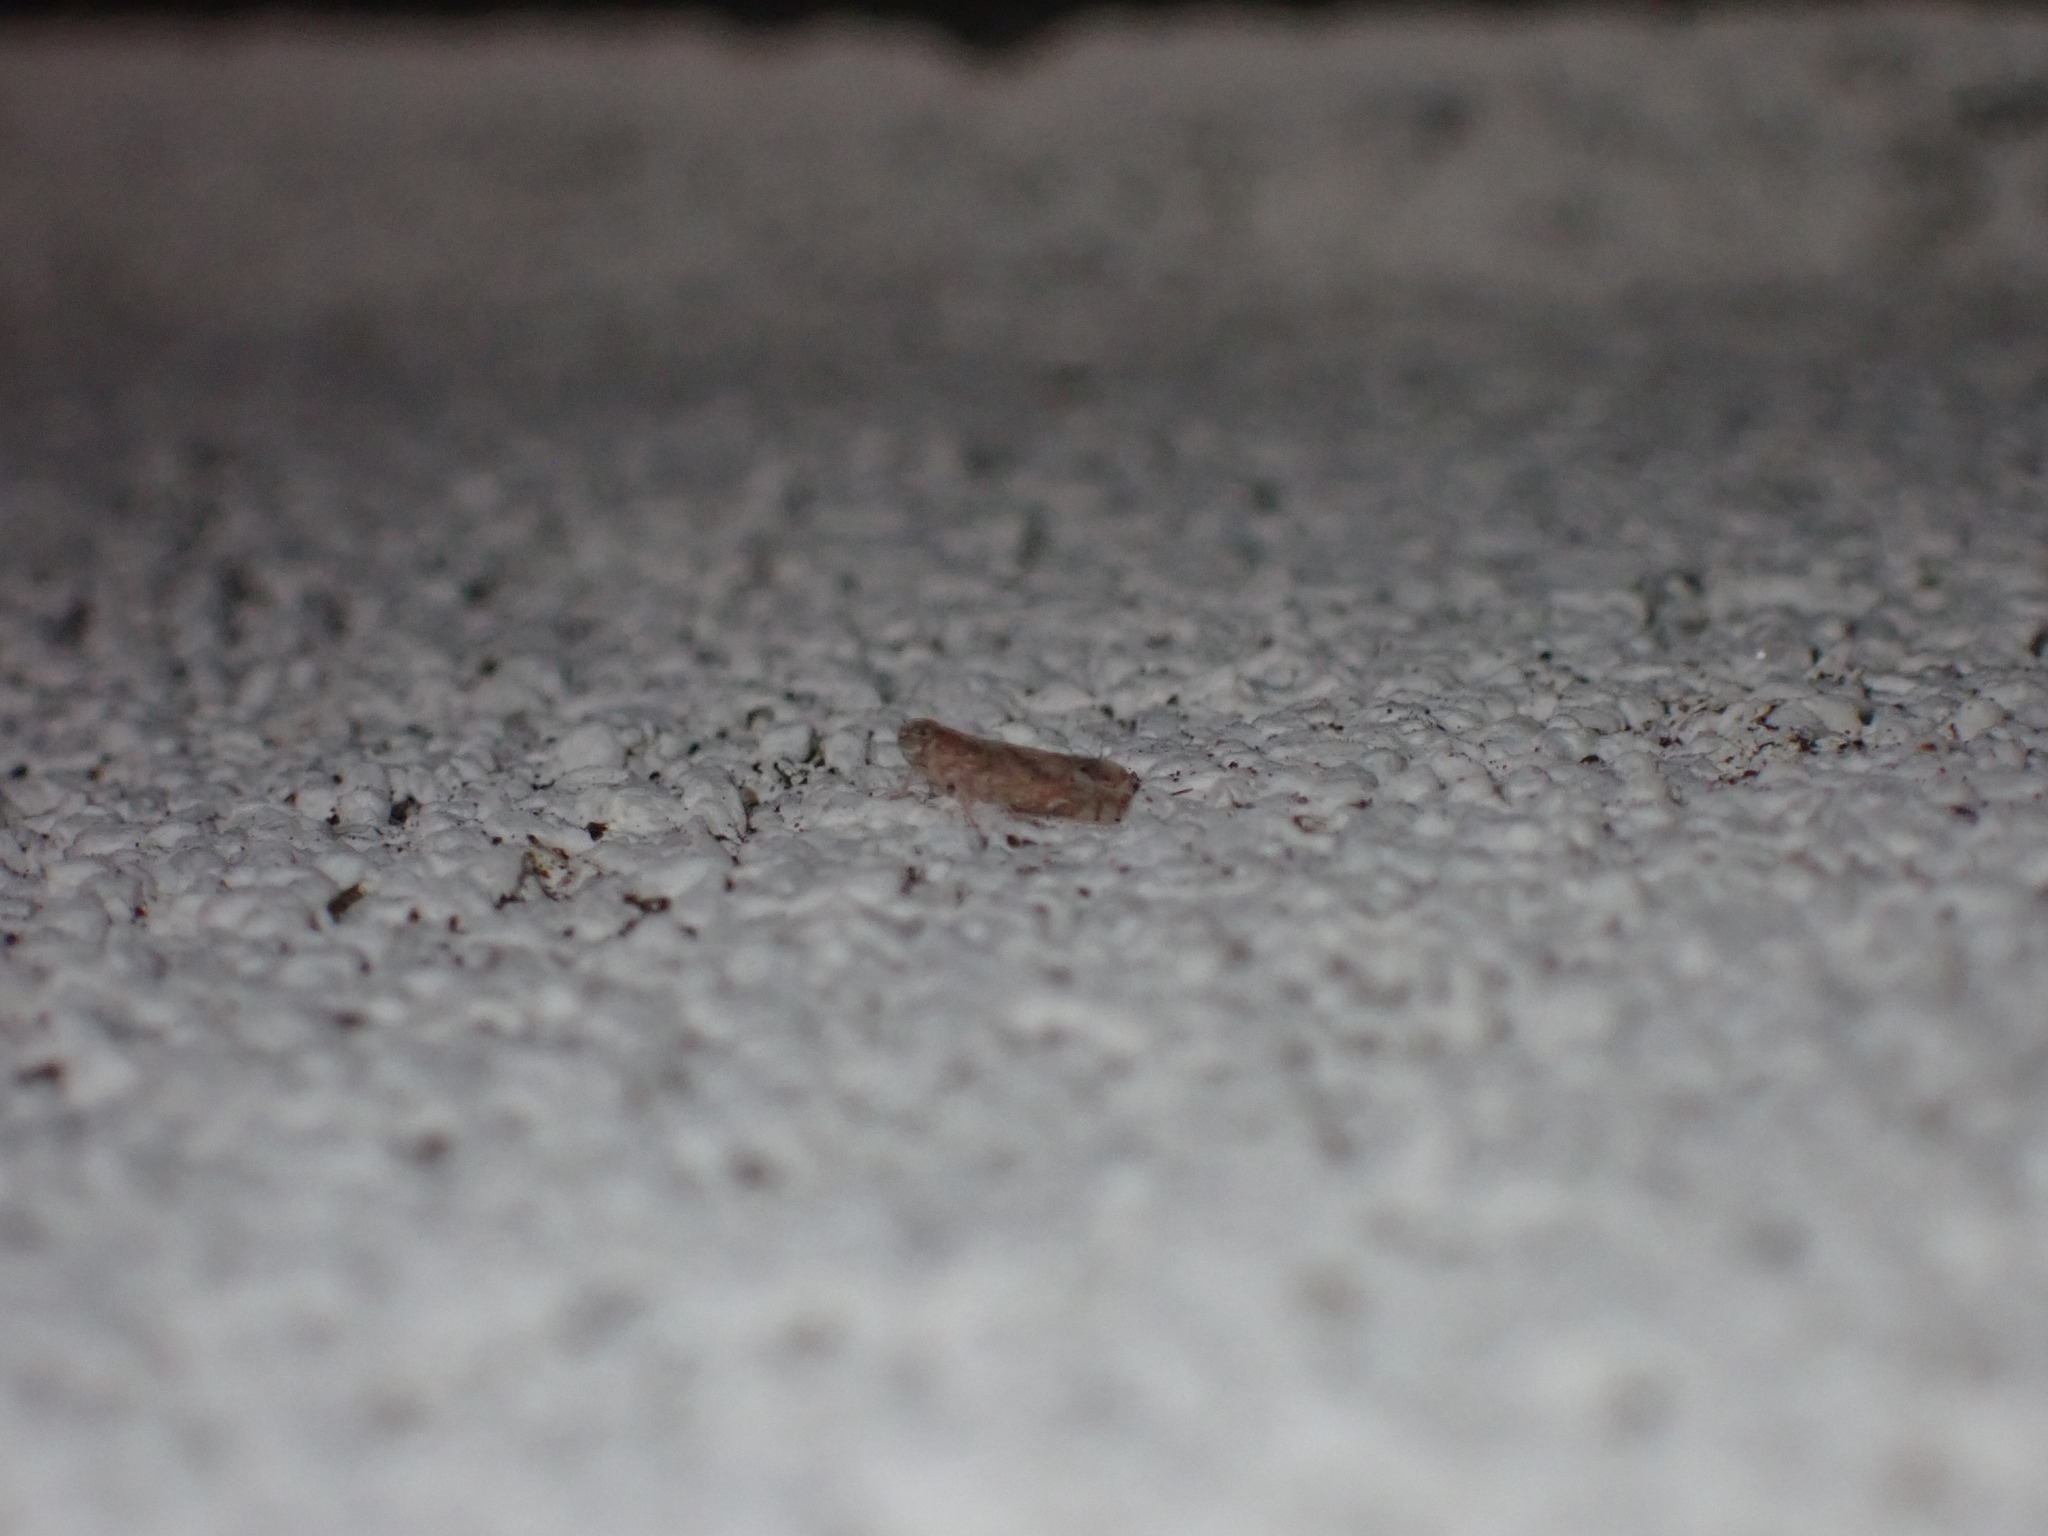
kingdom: Animalia
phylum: Arthropoda
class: Insecta
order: Hemiptera
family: Cixiidae
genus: Nymphomyndus
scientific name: Nymphomyndus caribbea
